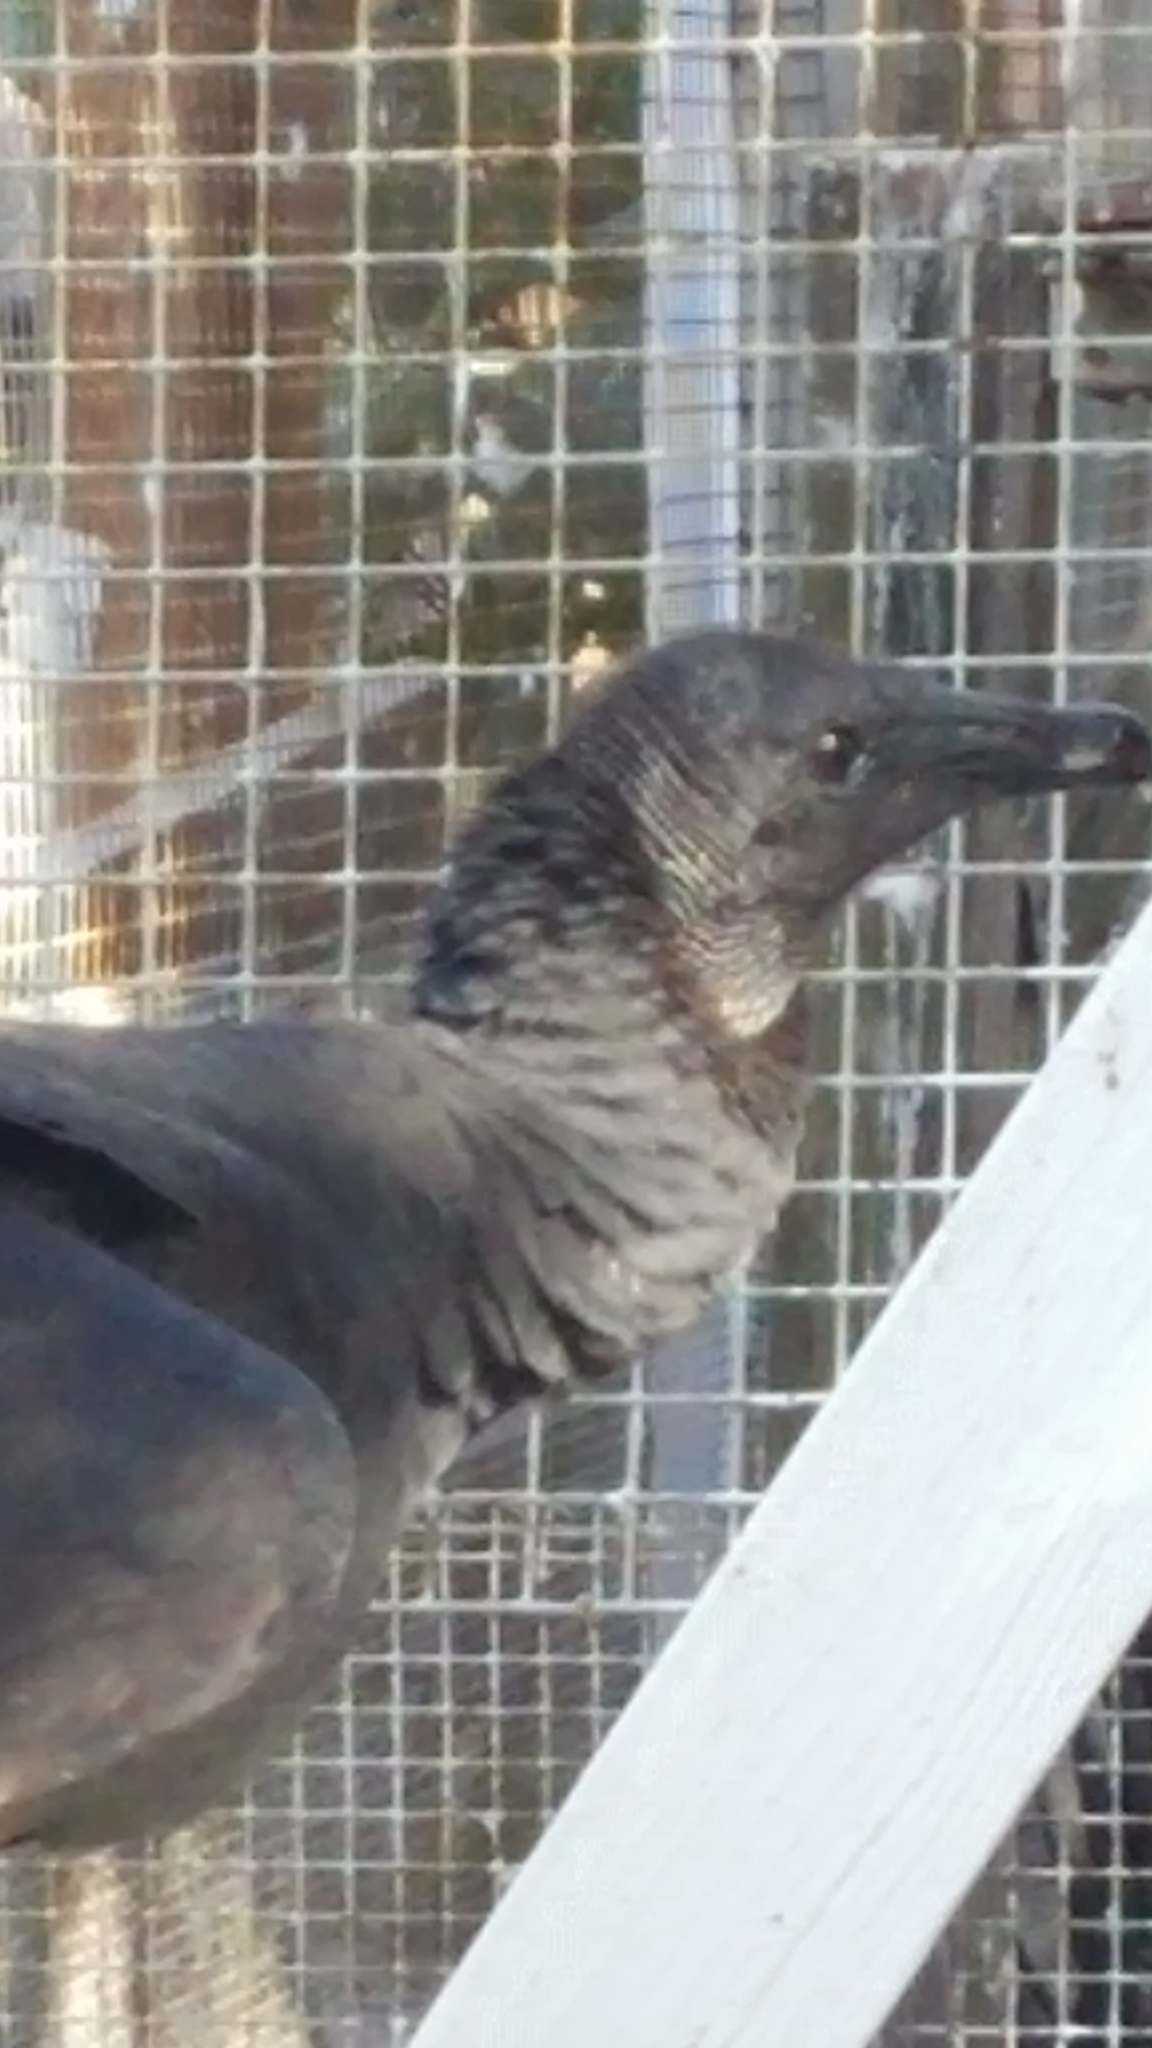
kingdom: Animalia
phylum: Chordata
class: Aves
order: Accipitriformes
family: Cathartidae
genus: Coragyps
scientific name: Coragyps atratus
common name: Black vulture
